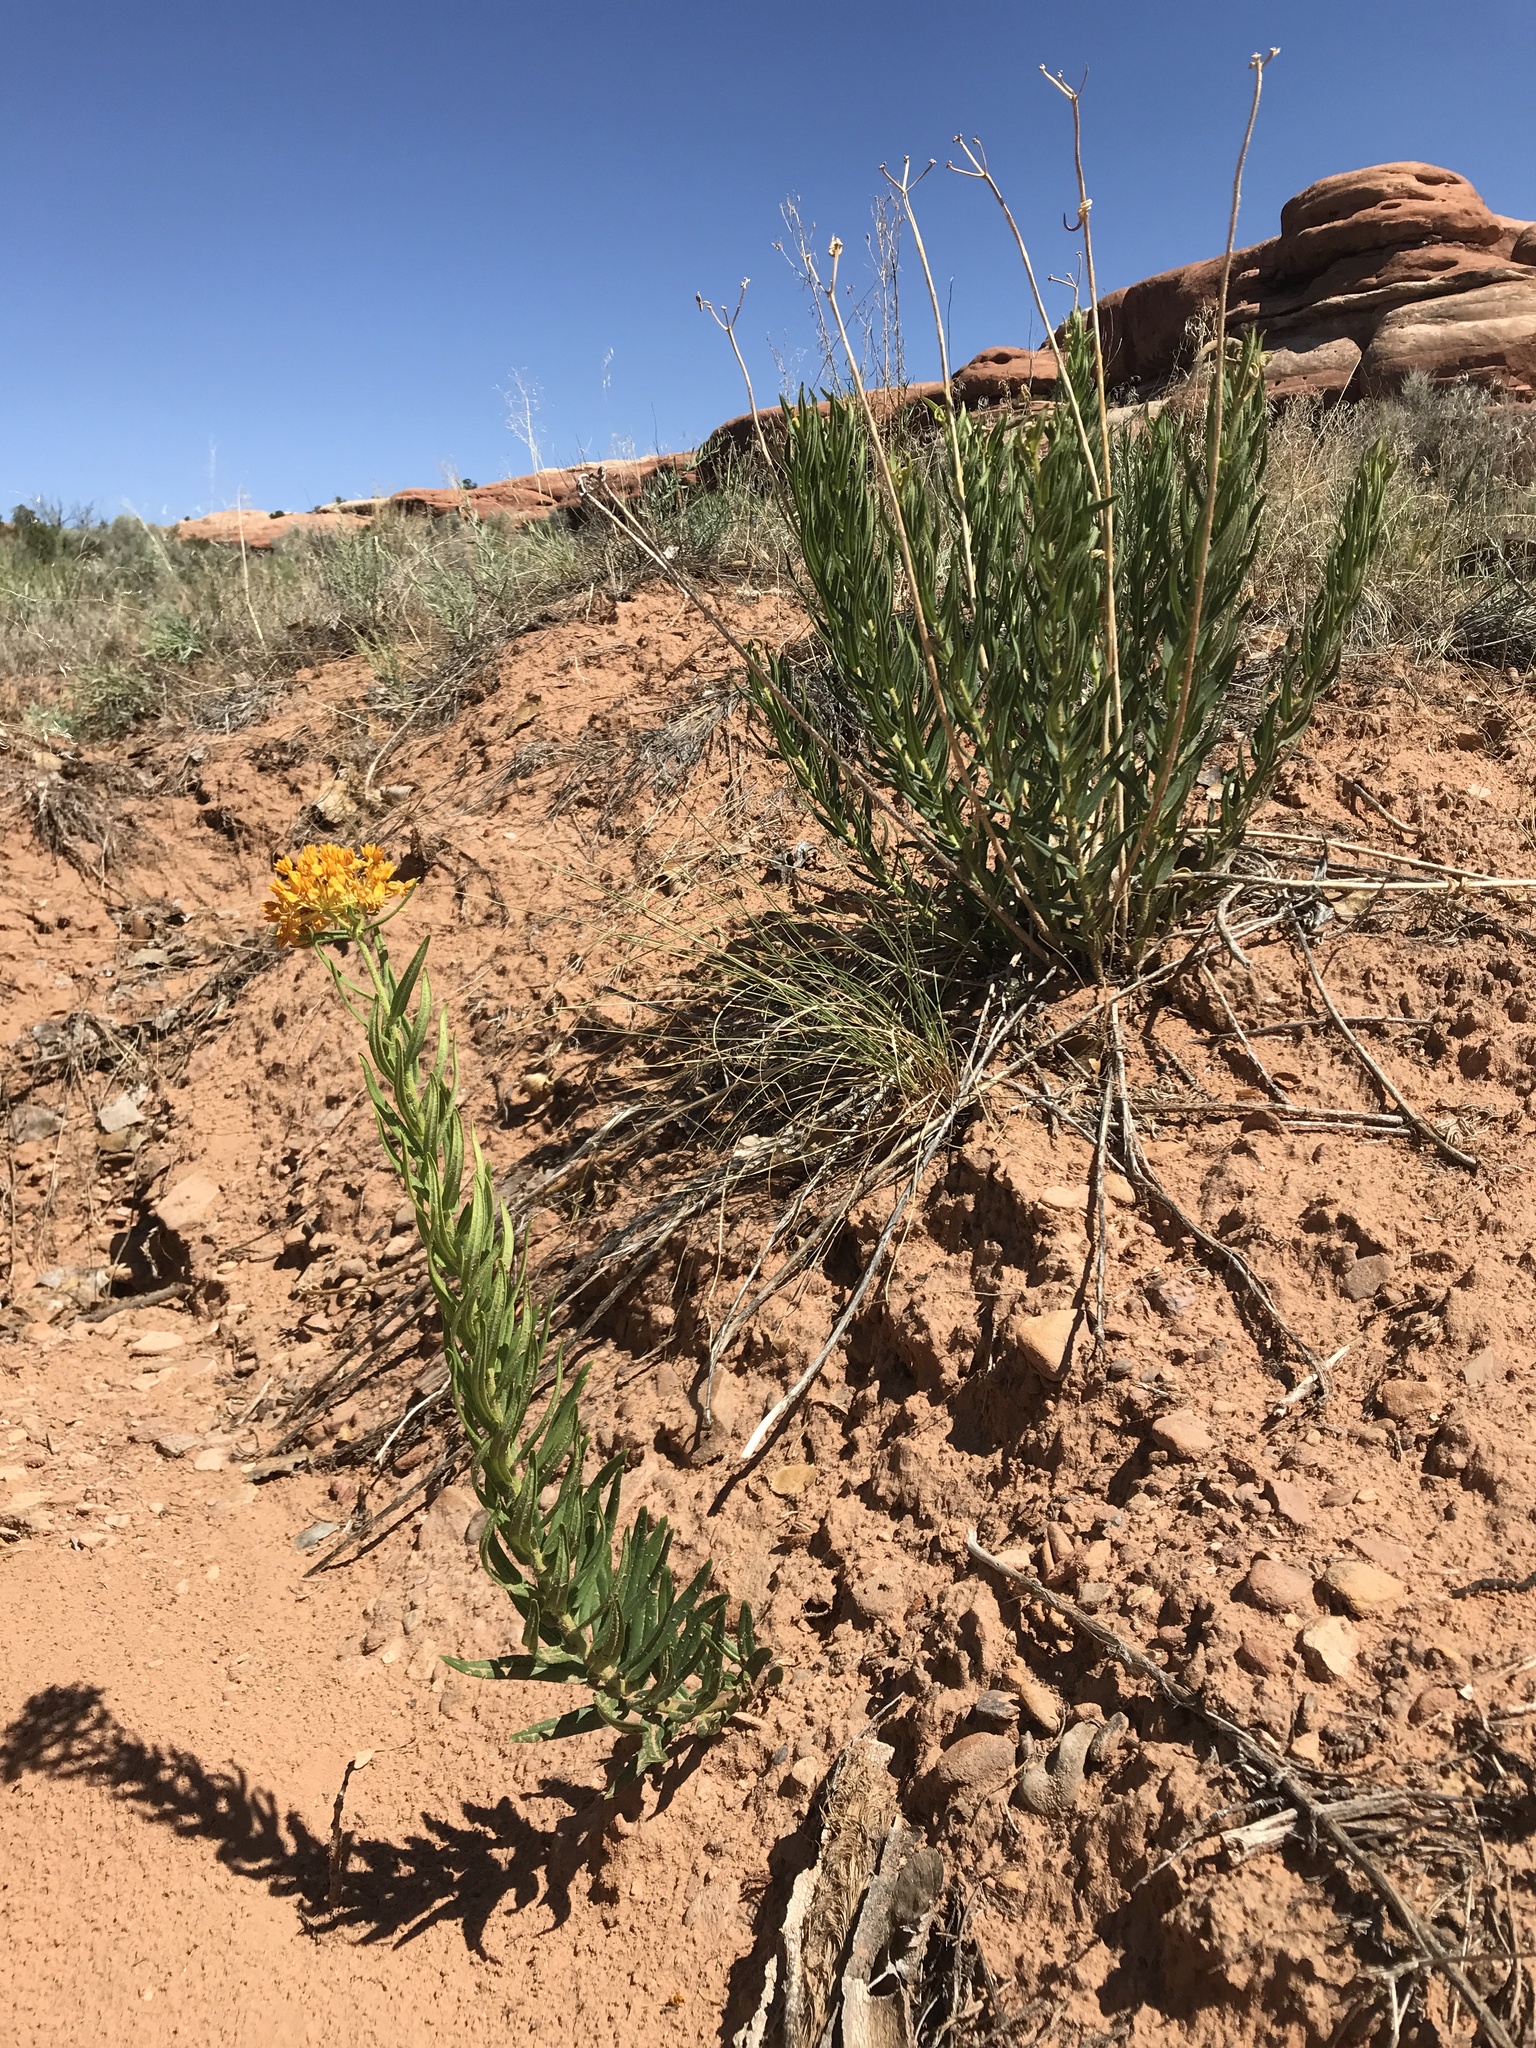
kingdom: Plantae
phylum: Tracheophyta
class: Magnoliopsida
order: Gentianales
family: Apocynaceae
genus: Asclepias
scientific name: Asclepias tuberosa
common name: Butterfly milkweed
